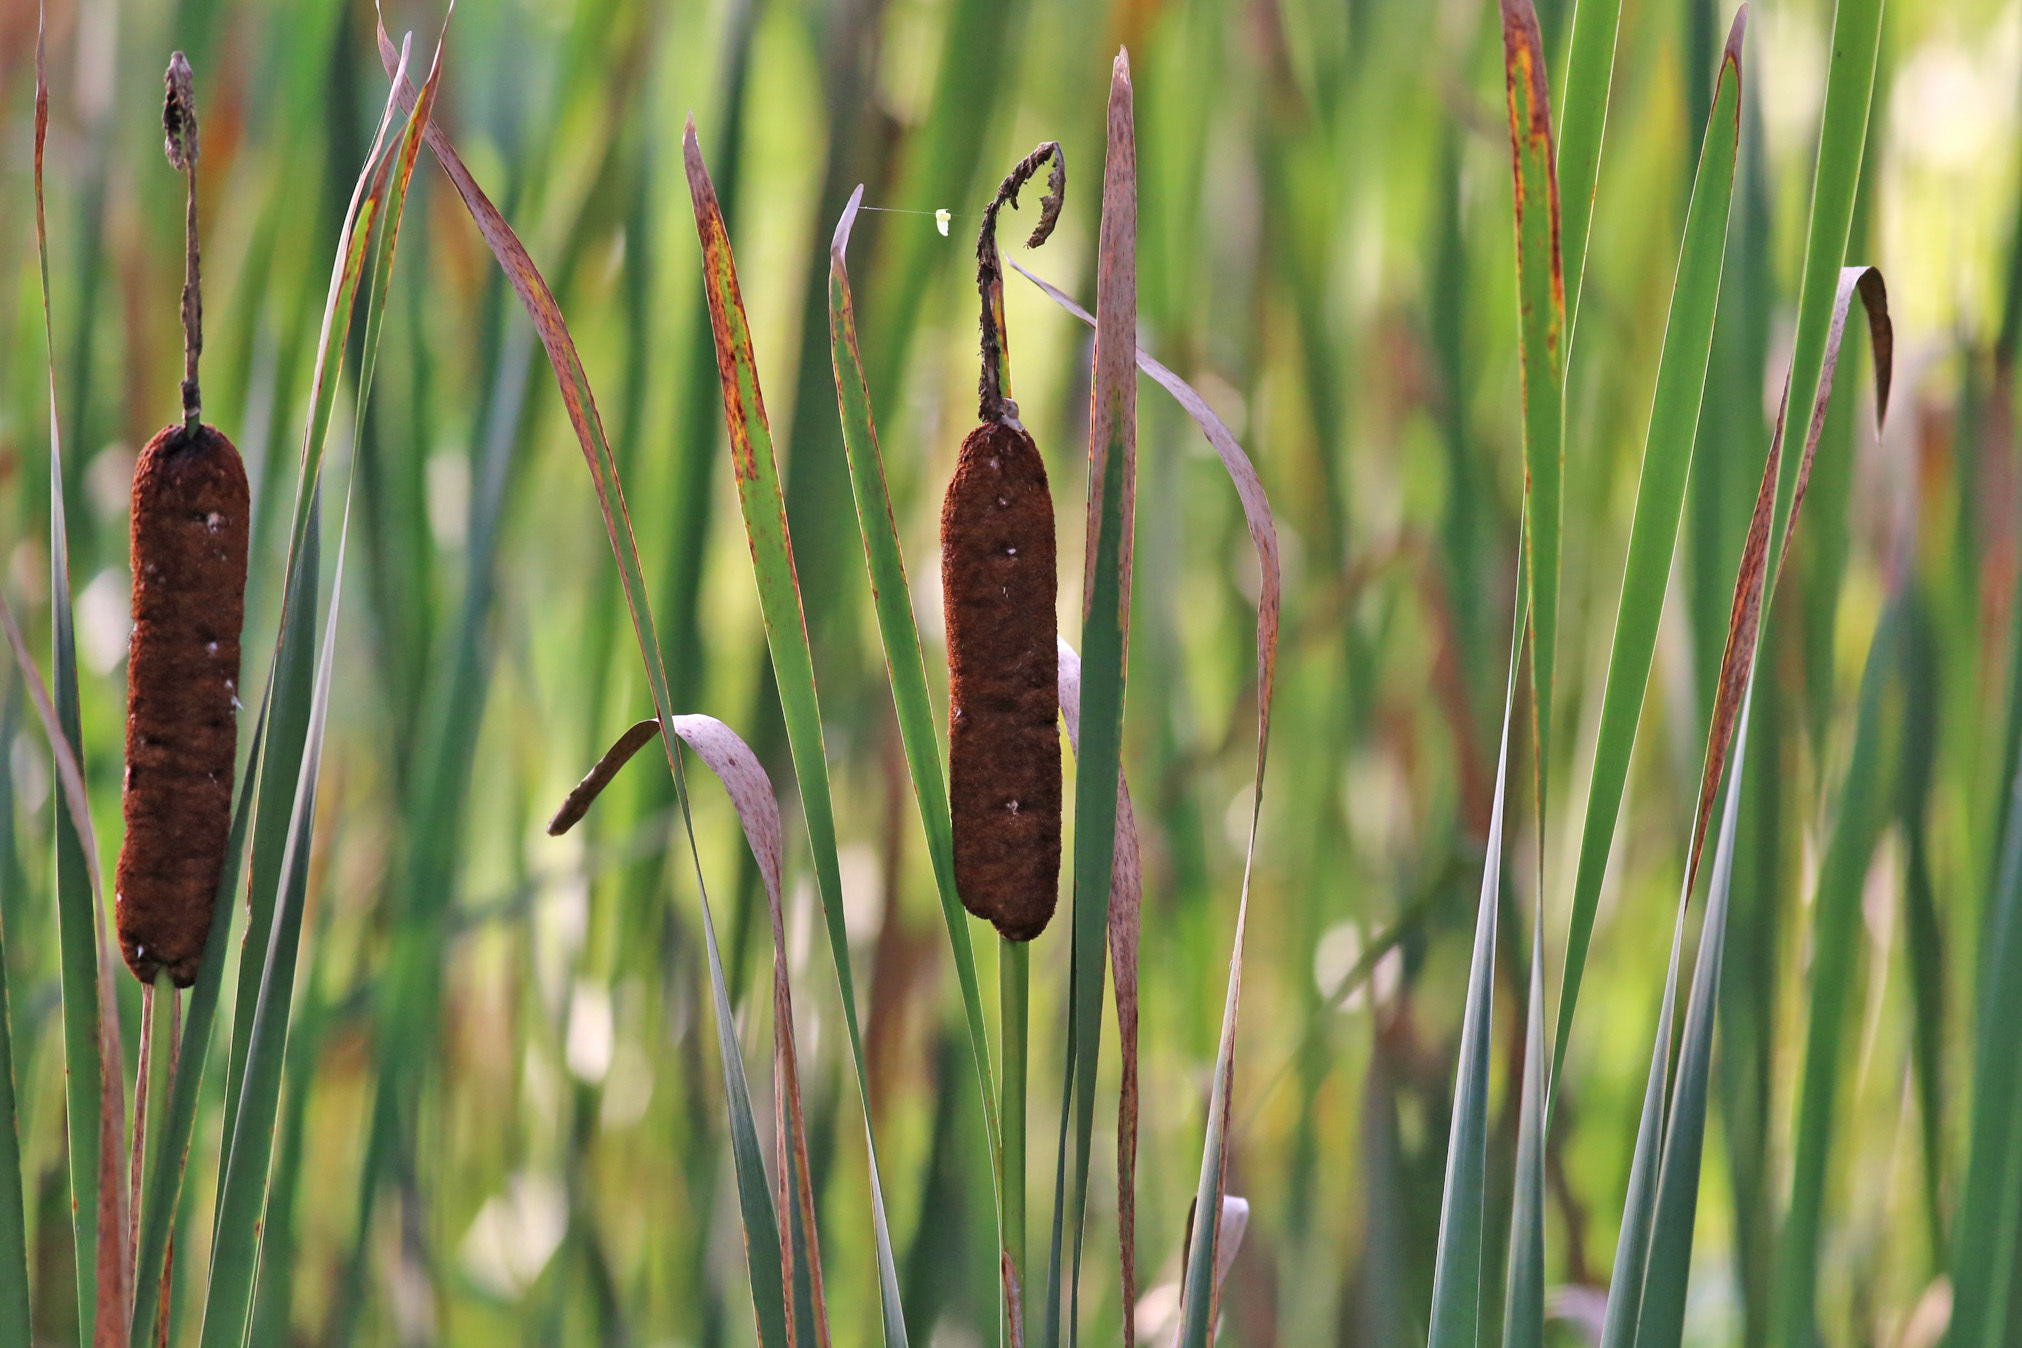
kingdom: Plantae
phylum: Tracheophyta
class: Liliopsida
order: Poales
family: Typhaceae
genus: Typha
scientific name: Typha latifolia
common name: Broadleaf cattail
